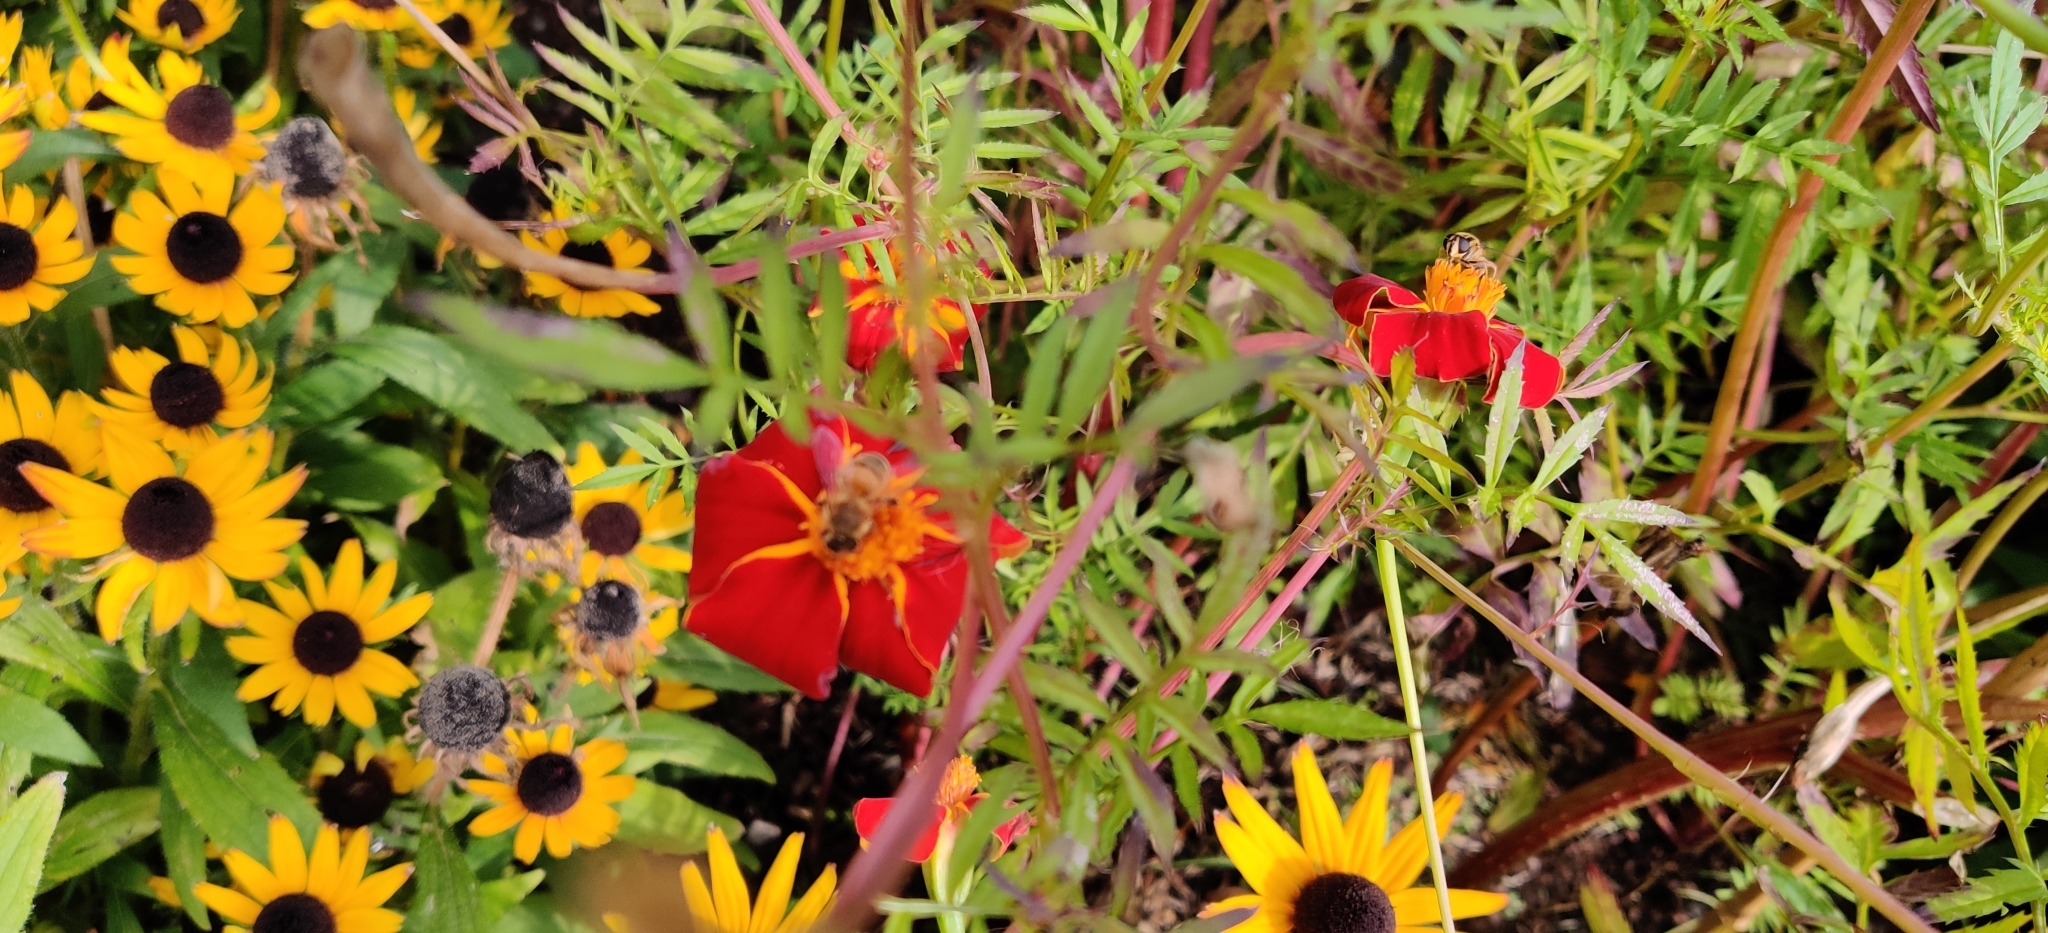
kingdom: Animalia
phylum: Arthropoda
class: Insecta
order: Hymenoptera
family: Apidae
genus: Apis
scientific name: Apis mellifera
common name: Honey bee
